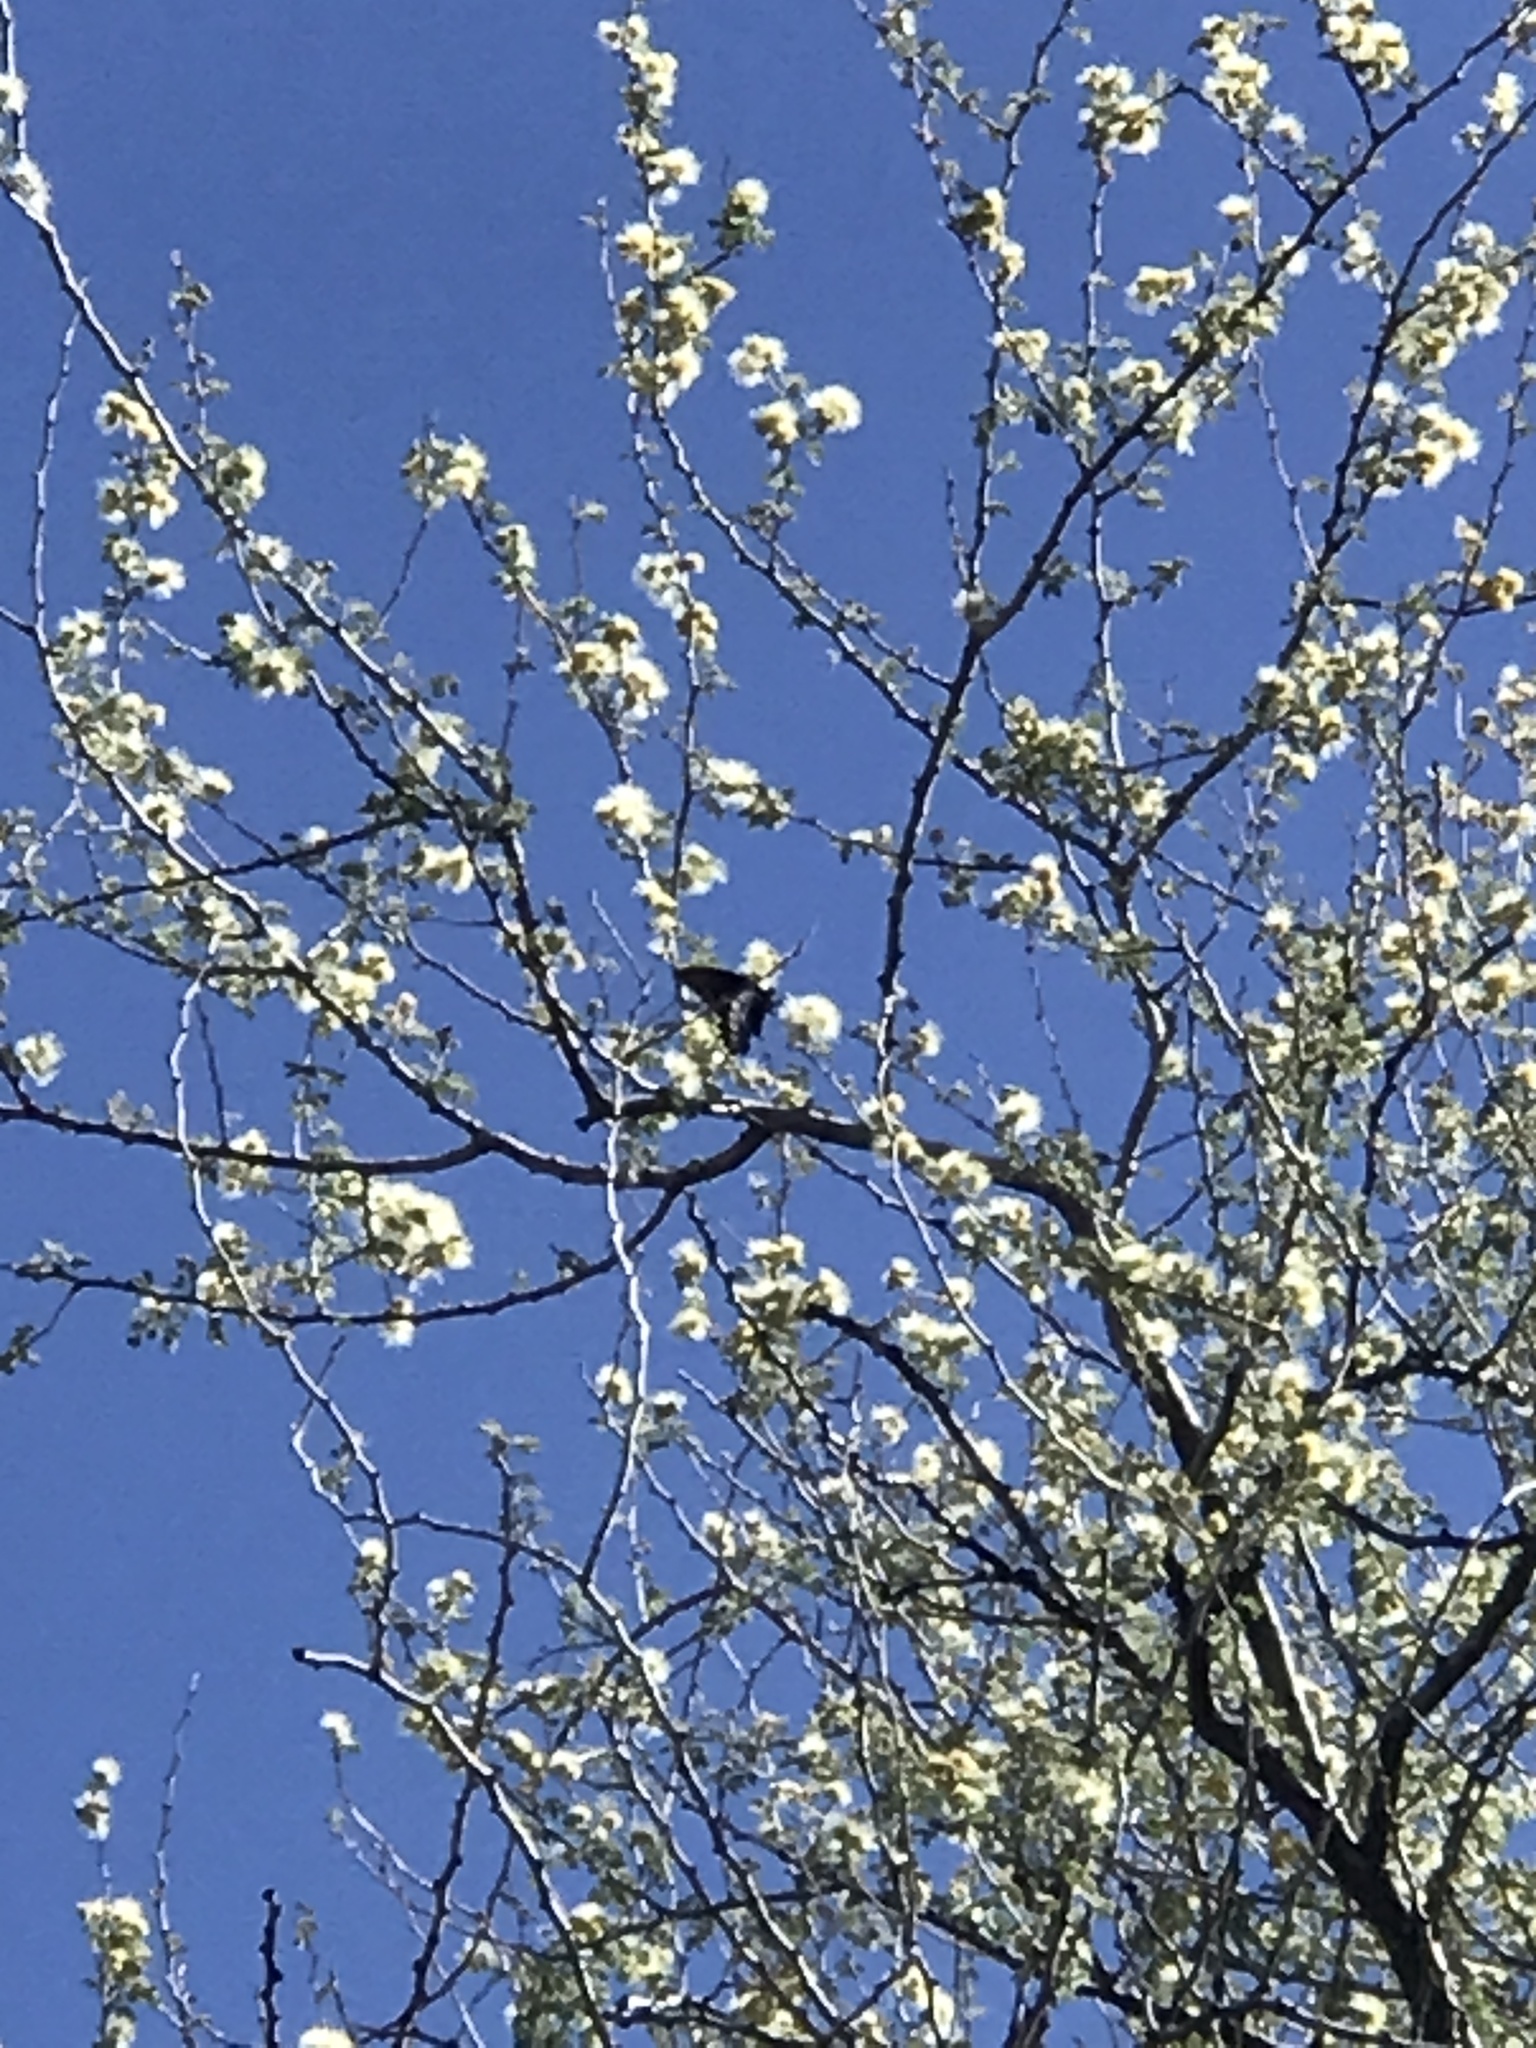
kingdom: Animalia
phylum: Arthropoda
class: Insecta
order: Lepidoptera
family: Papilionidae
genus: Battus
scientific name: Battus philenor
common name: Pipevine swallowtail
